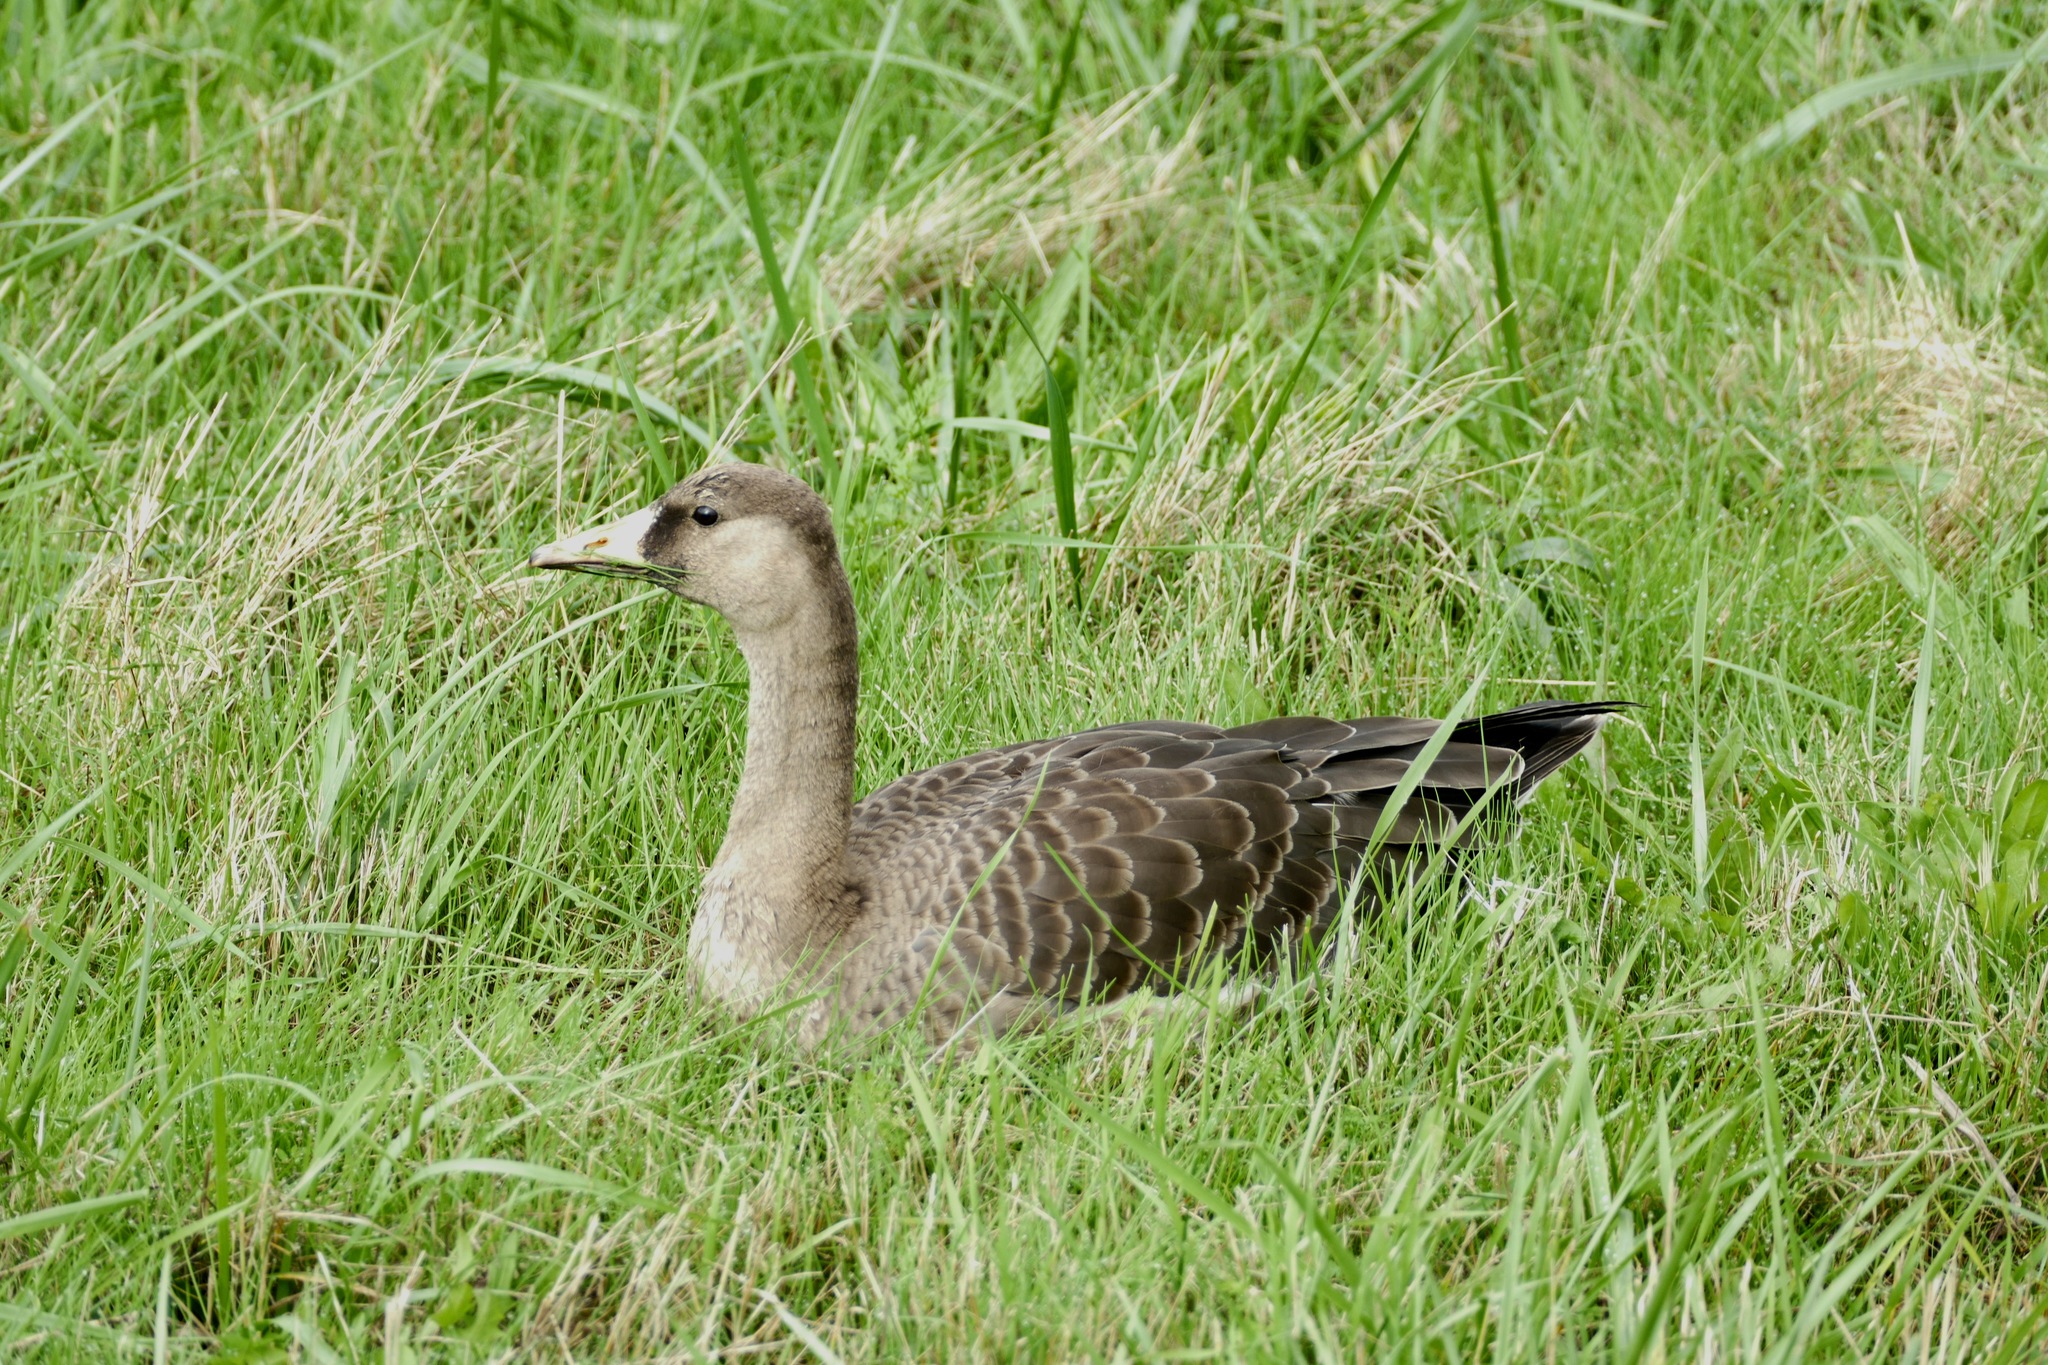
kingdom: Animalia
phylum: Chordata
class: Aves
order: Anseriformes
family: Anatidae
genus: Anser
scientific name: Anser albifrons
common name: Greater white-fronted goose
